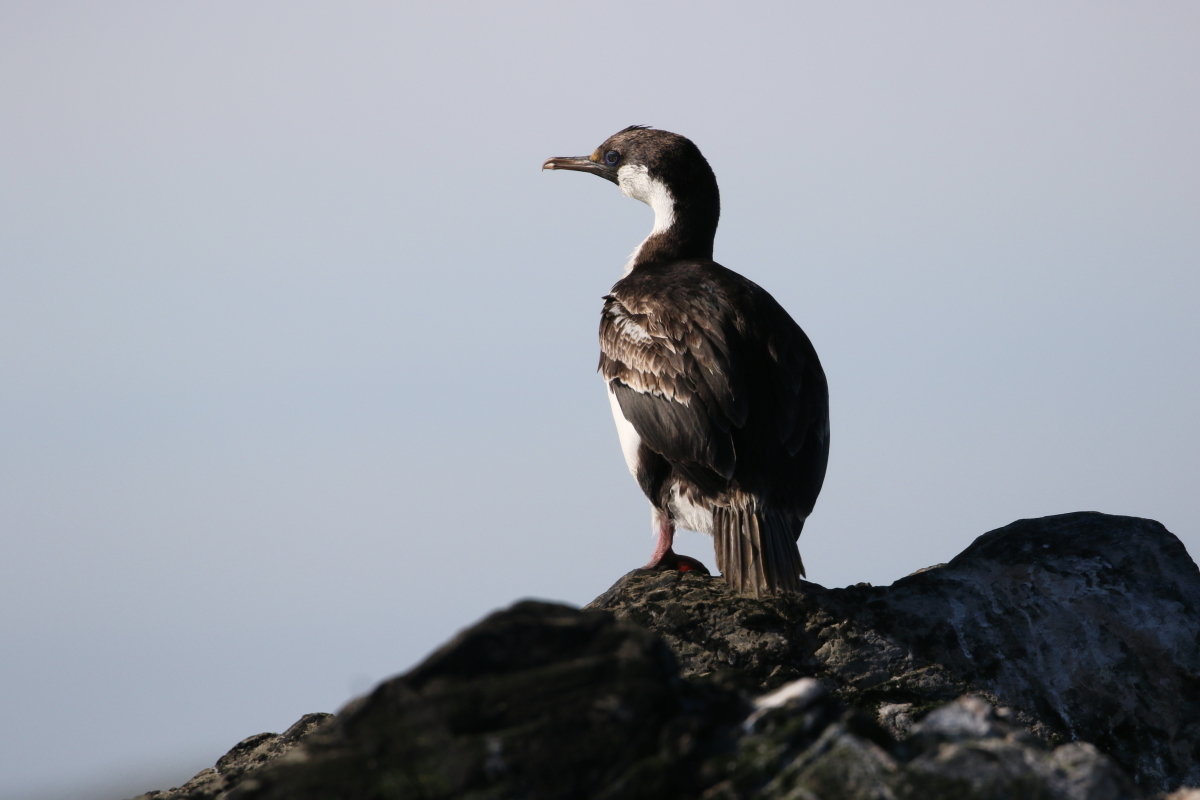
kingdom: Animalia
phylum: Chordata
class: Aves
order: Suliformes
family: Phalacrocoracidae
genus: Leucocarbo
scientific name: Leucocarbo atriceps
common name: Imperial shag
